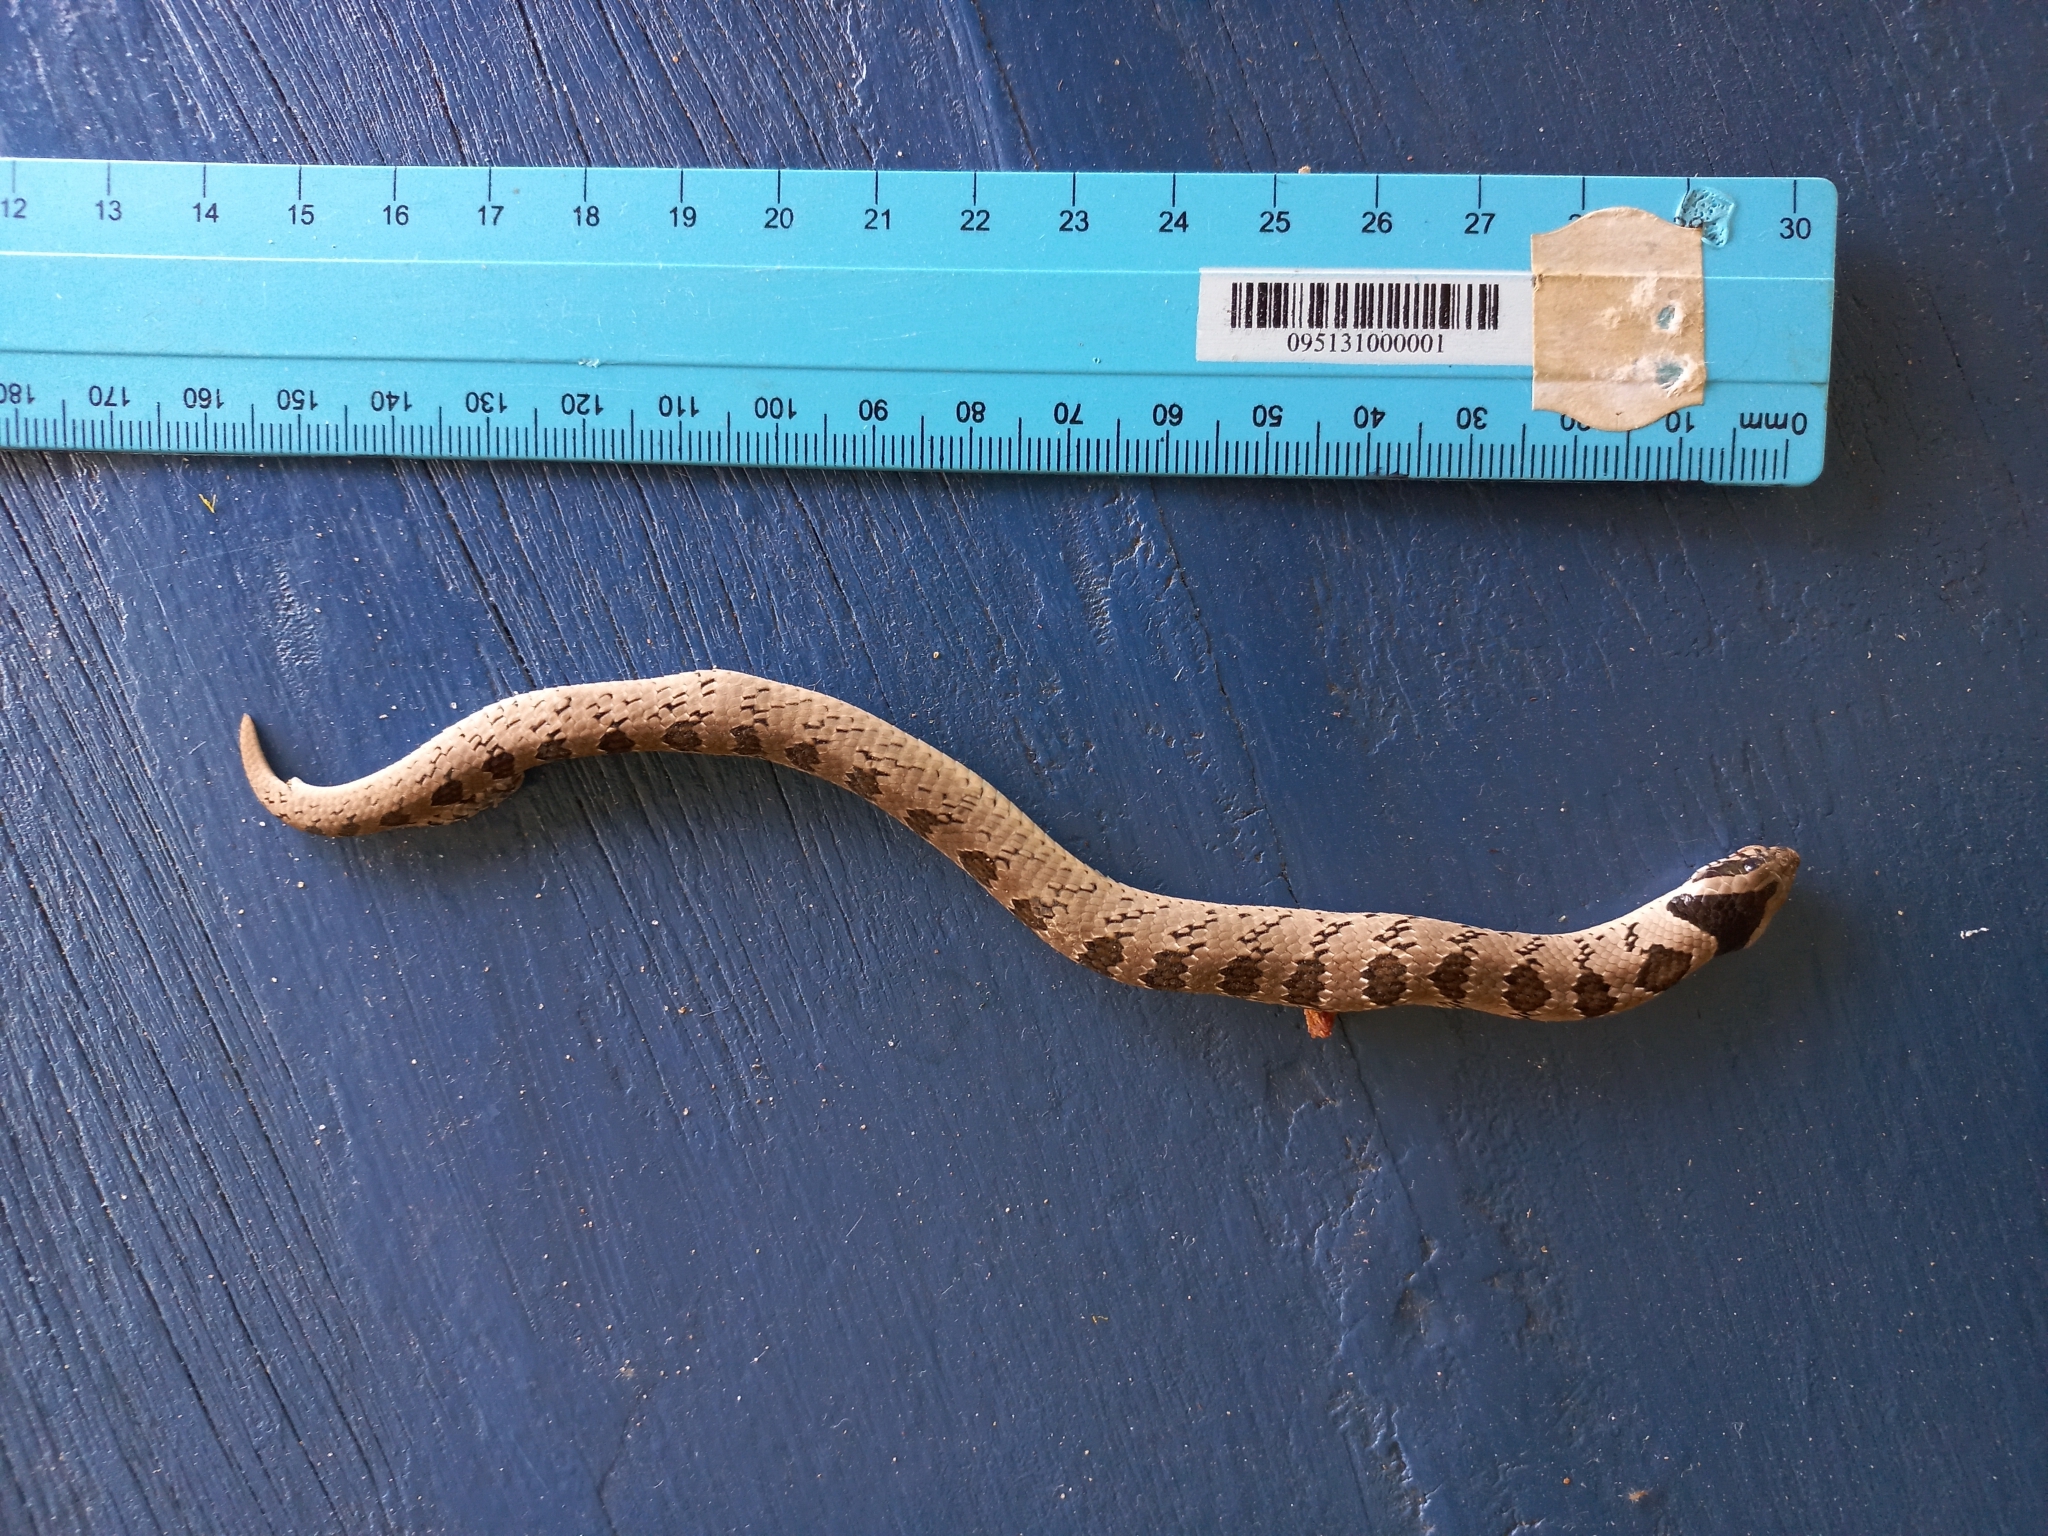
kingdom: Animalia
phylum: Chordata
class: Squamata
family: Viperidae
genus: Causus
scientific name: Causus defilippii
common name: Snouted night adder
